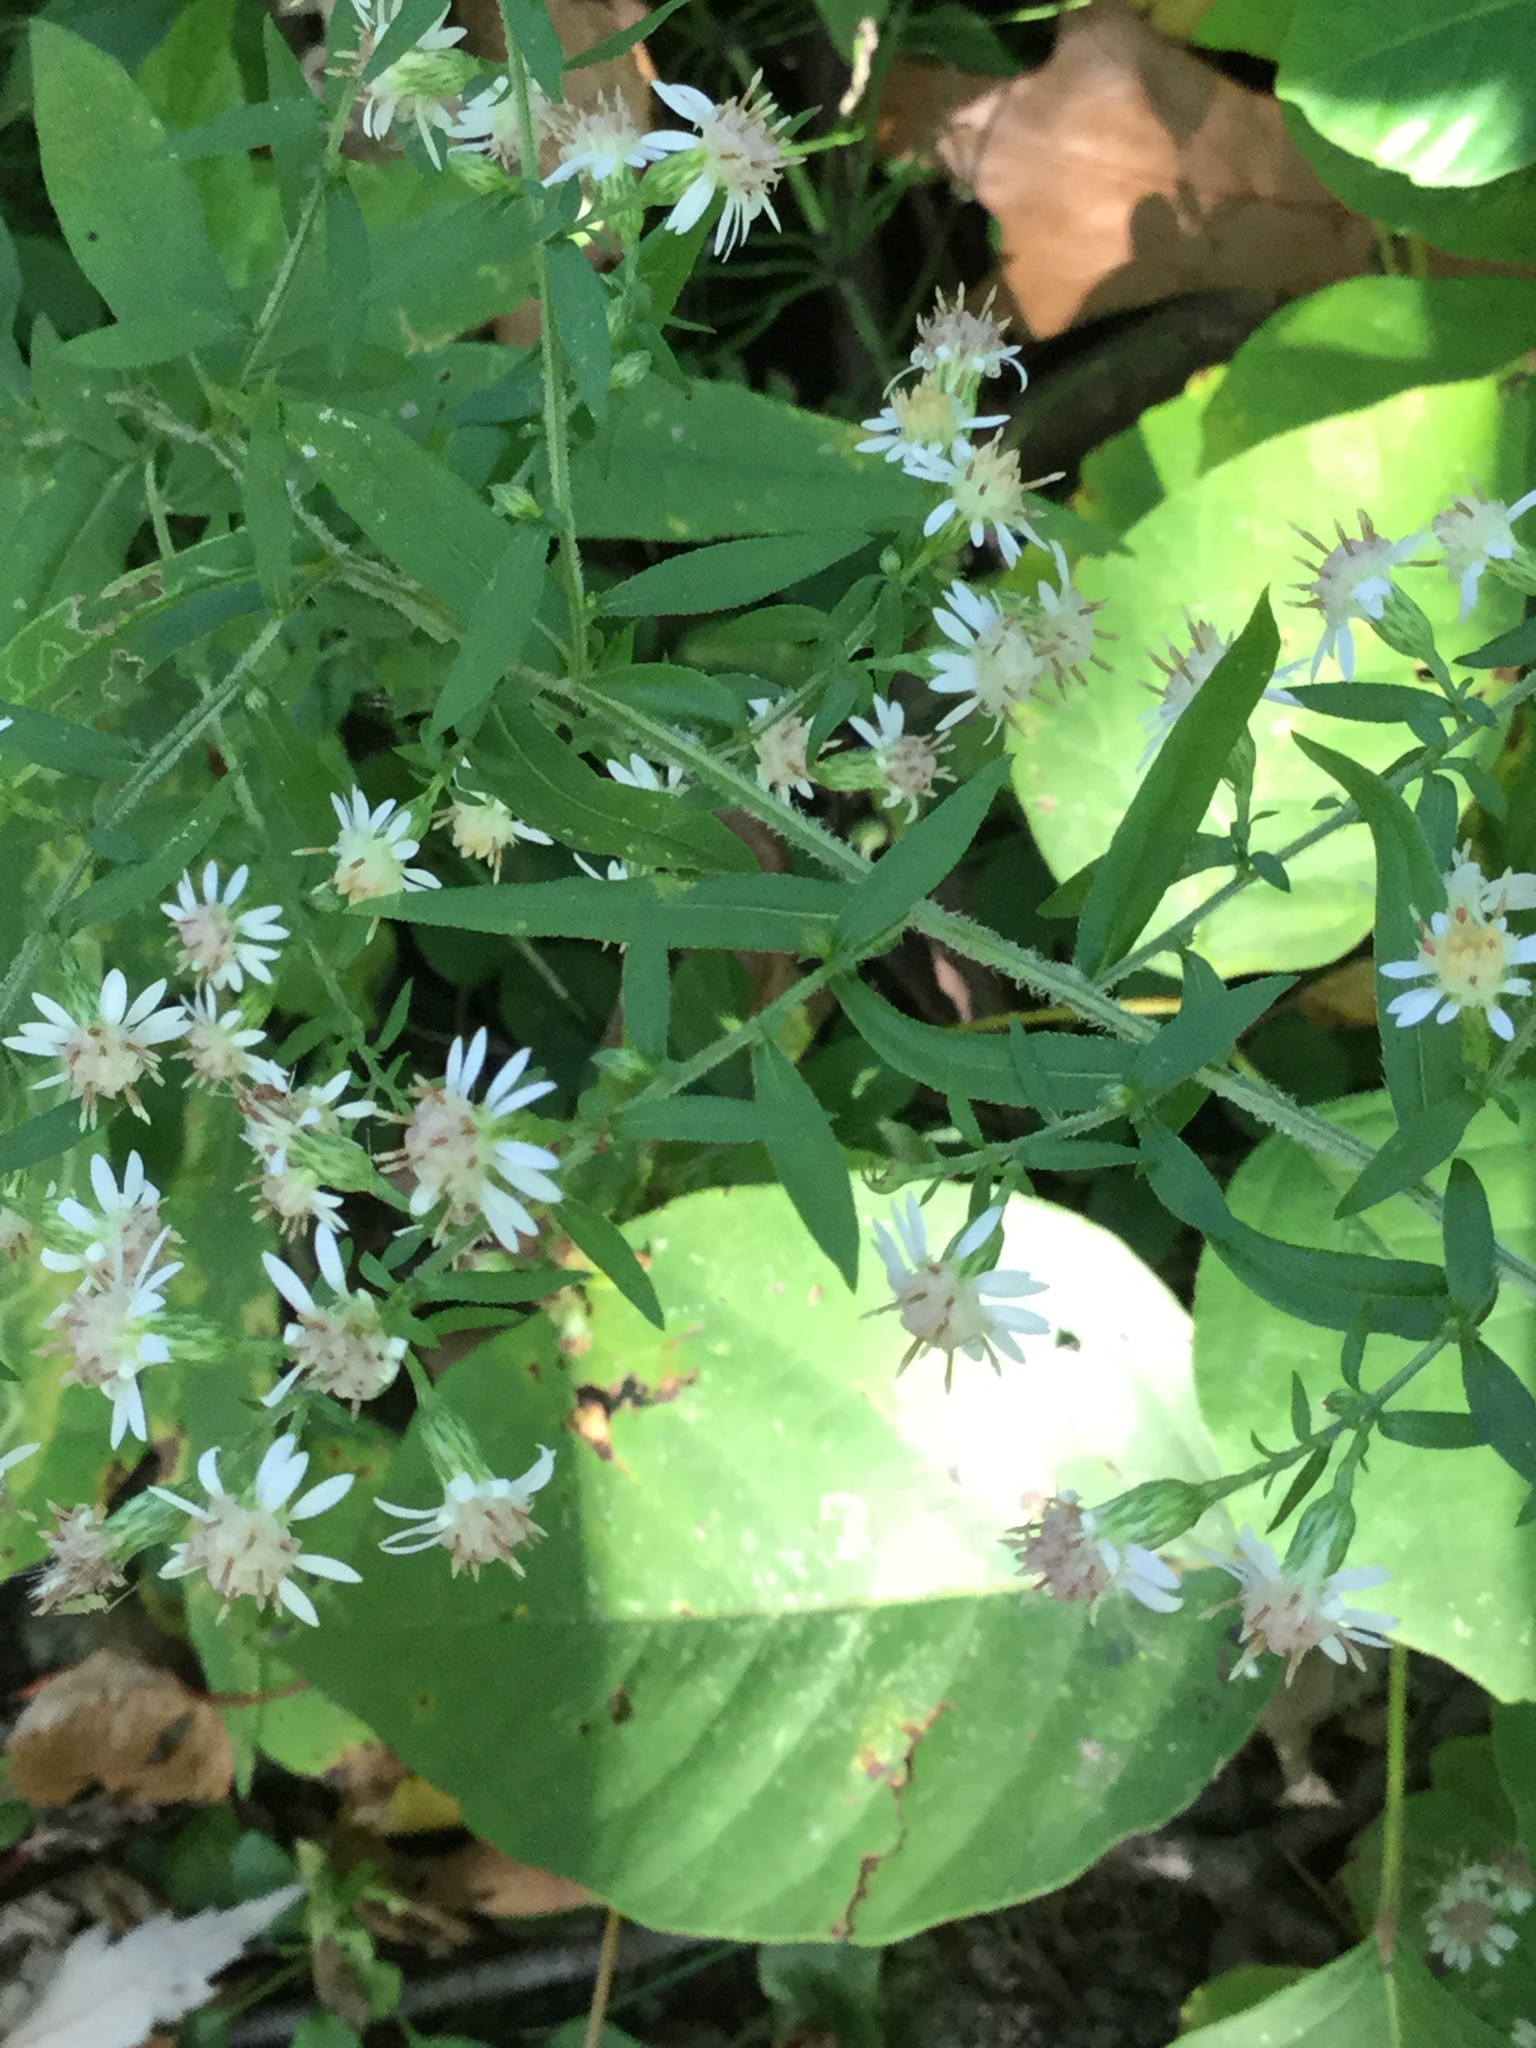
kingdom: Plantae
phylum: Tracheophyta
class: Magnoliopsida
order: Asterales
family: Asteraceae
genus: Symphyotrichum
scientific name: Symphyotrichum lateriflorum
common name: Calico aster
